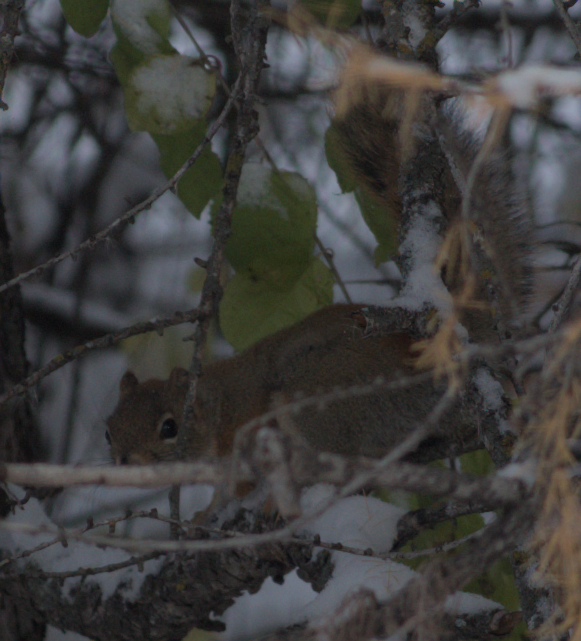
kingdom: Animalia
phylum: Chordata
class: Mammalia
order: Rodentia
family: Sciuridae
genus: Tamiasciurus
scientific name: Tamiasciurus hudsonicus
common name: Red squirrel
